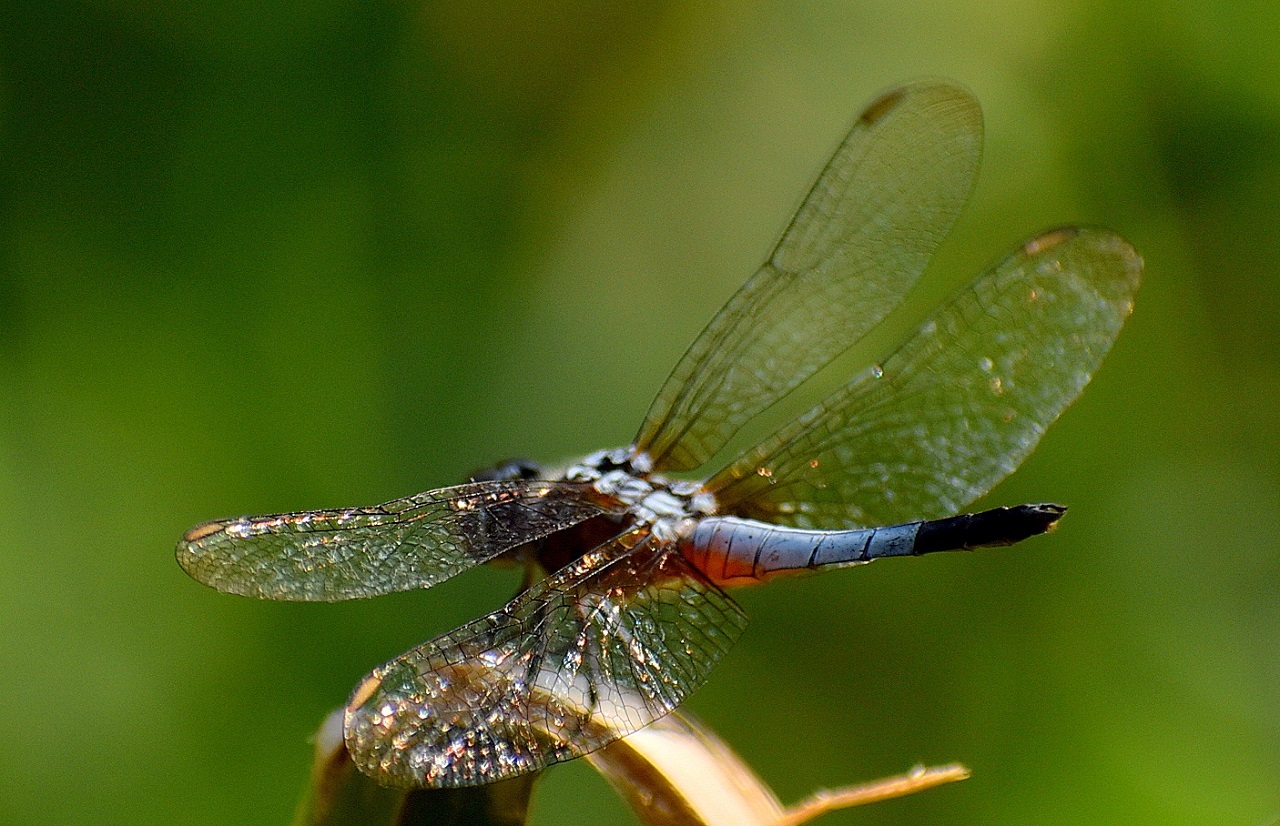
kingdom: Animalia
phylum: Arthropoda
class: Insecta
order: Odonata
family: Libellulidae
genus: Brachydiplax
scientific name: Brachydiplax chalybea
